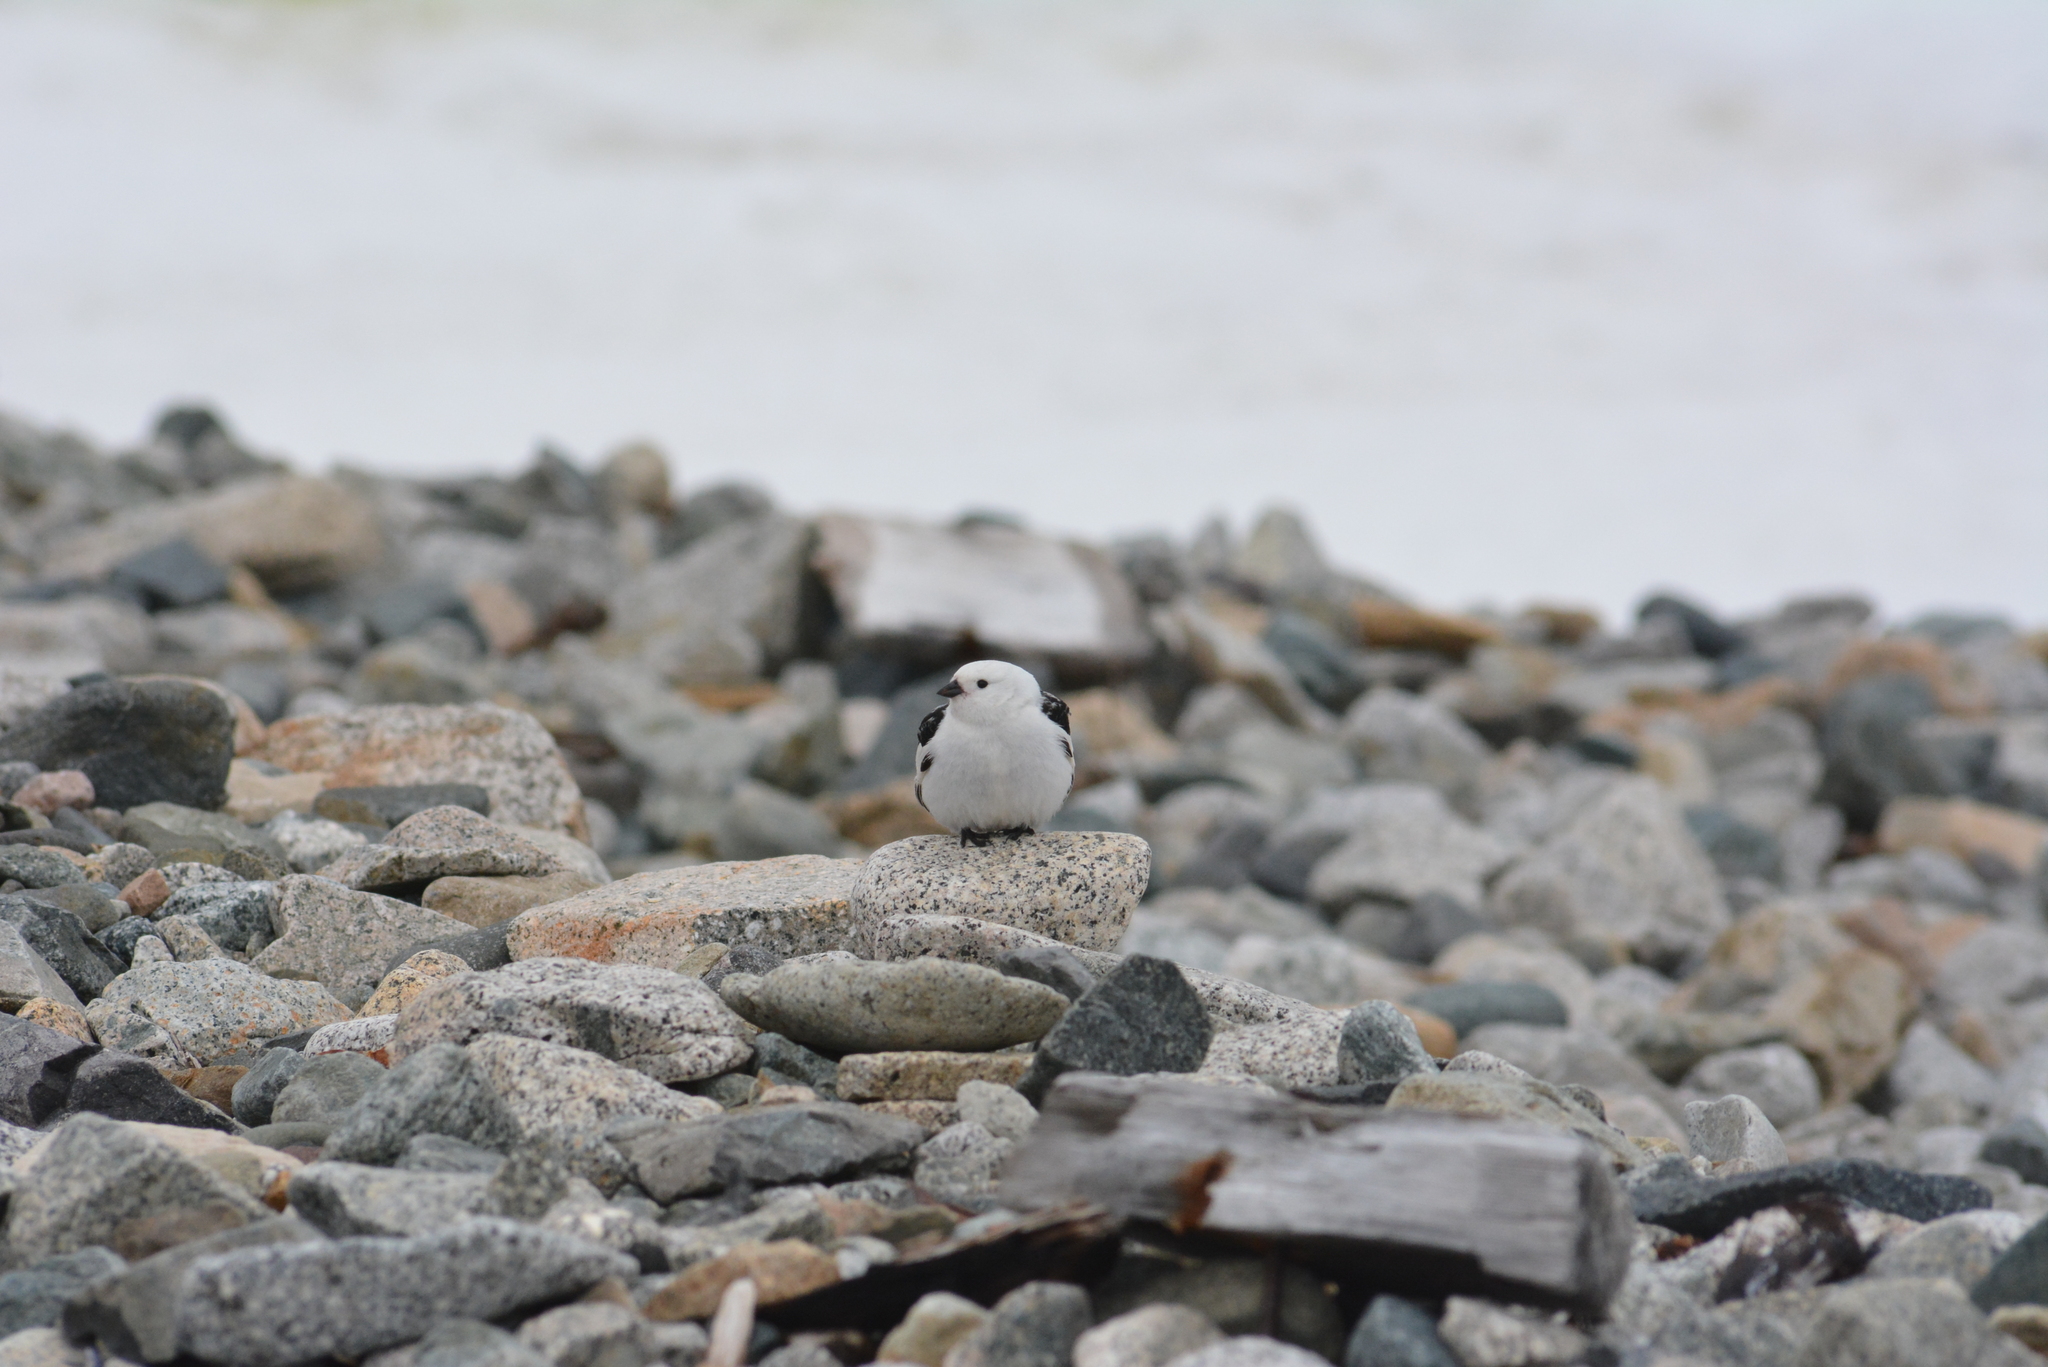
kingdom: Animalia
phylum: Chordata
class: Aves
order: Passeriformes
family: Calcariidae
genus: Plectrophenax
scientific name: Plectrophenax nivalis
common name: Snow bunting
